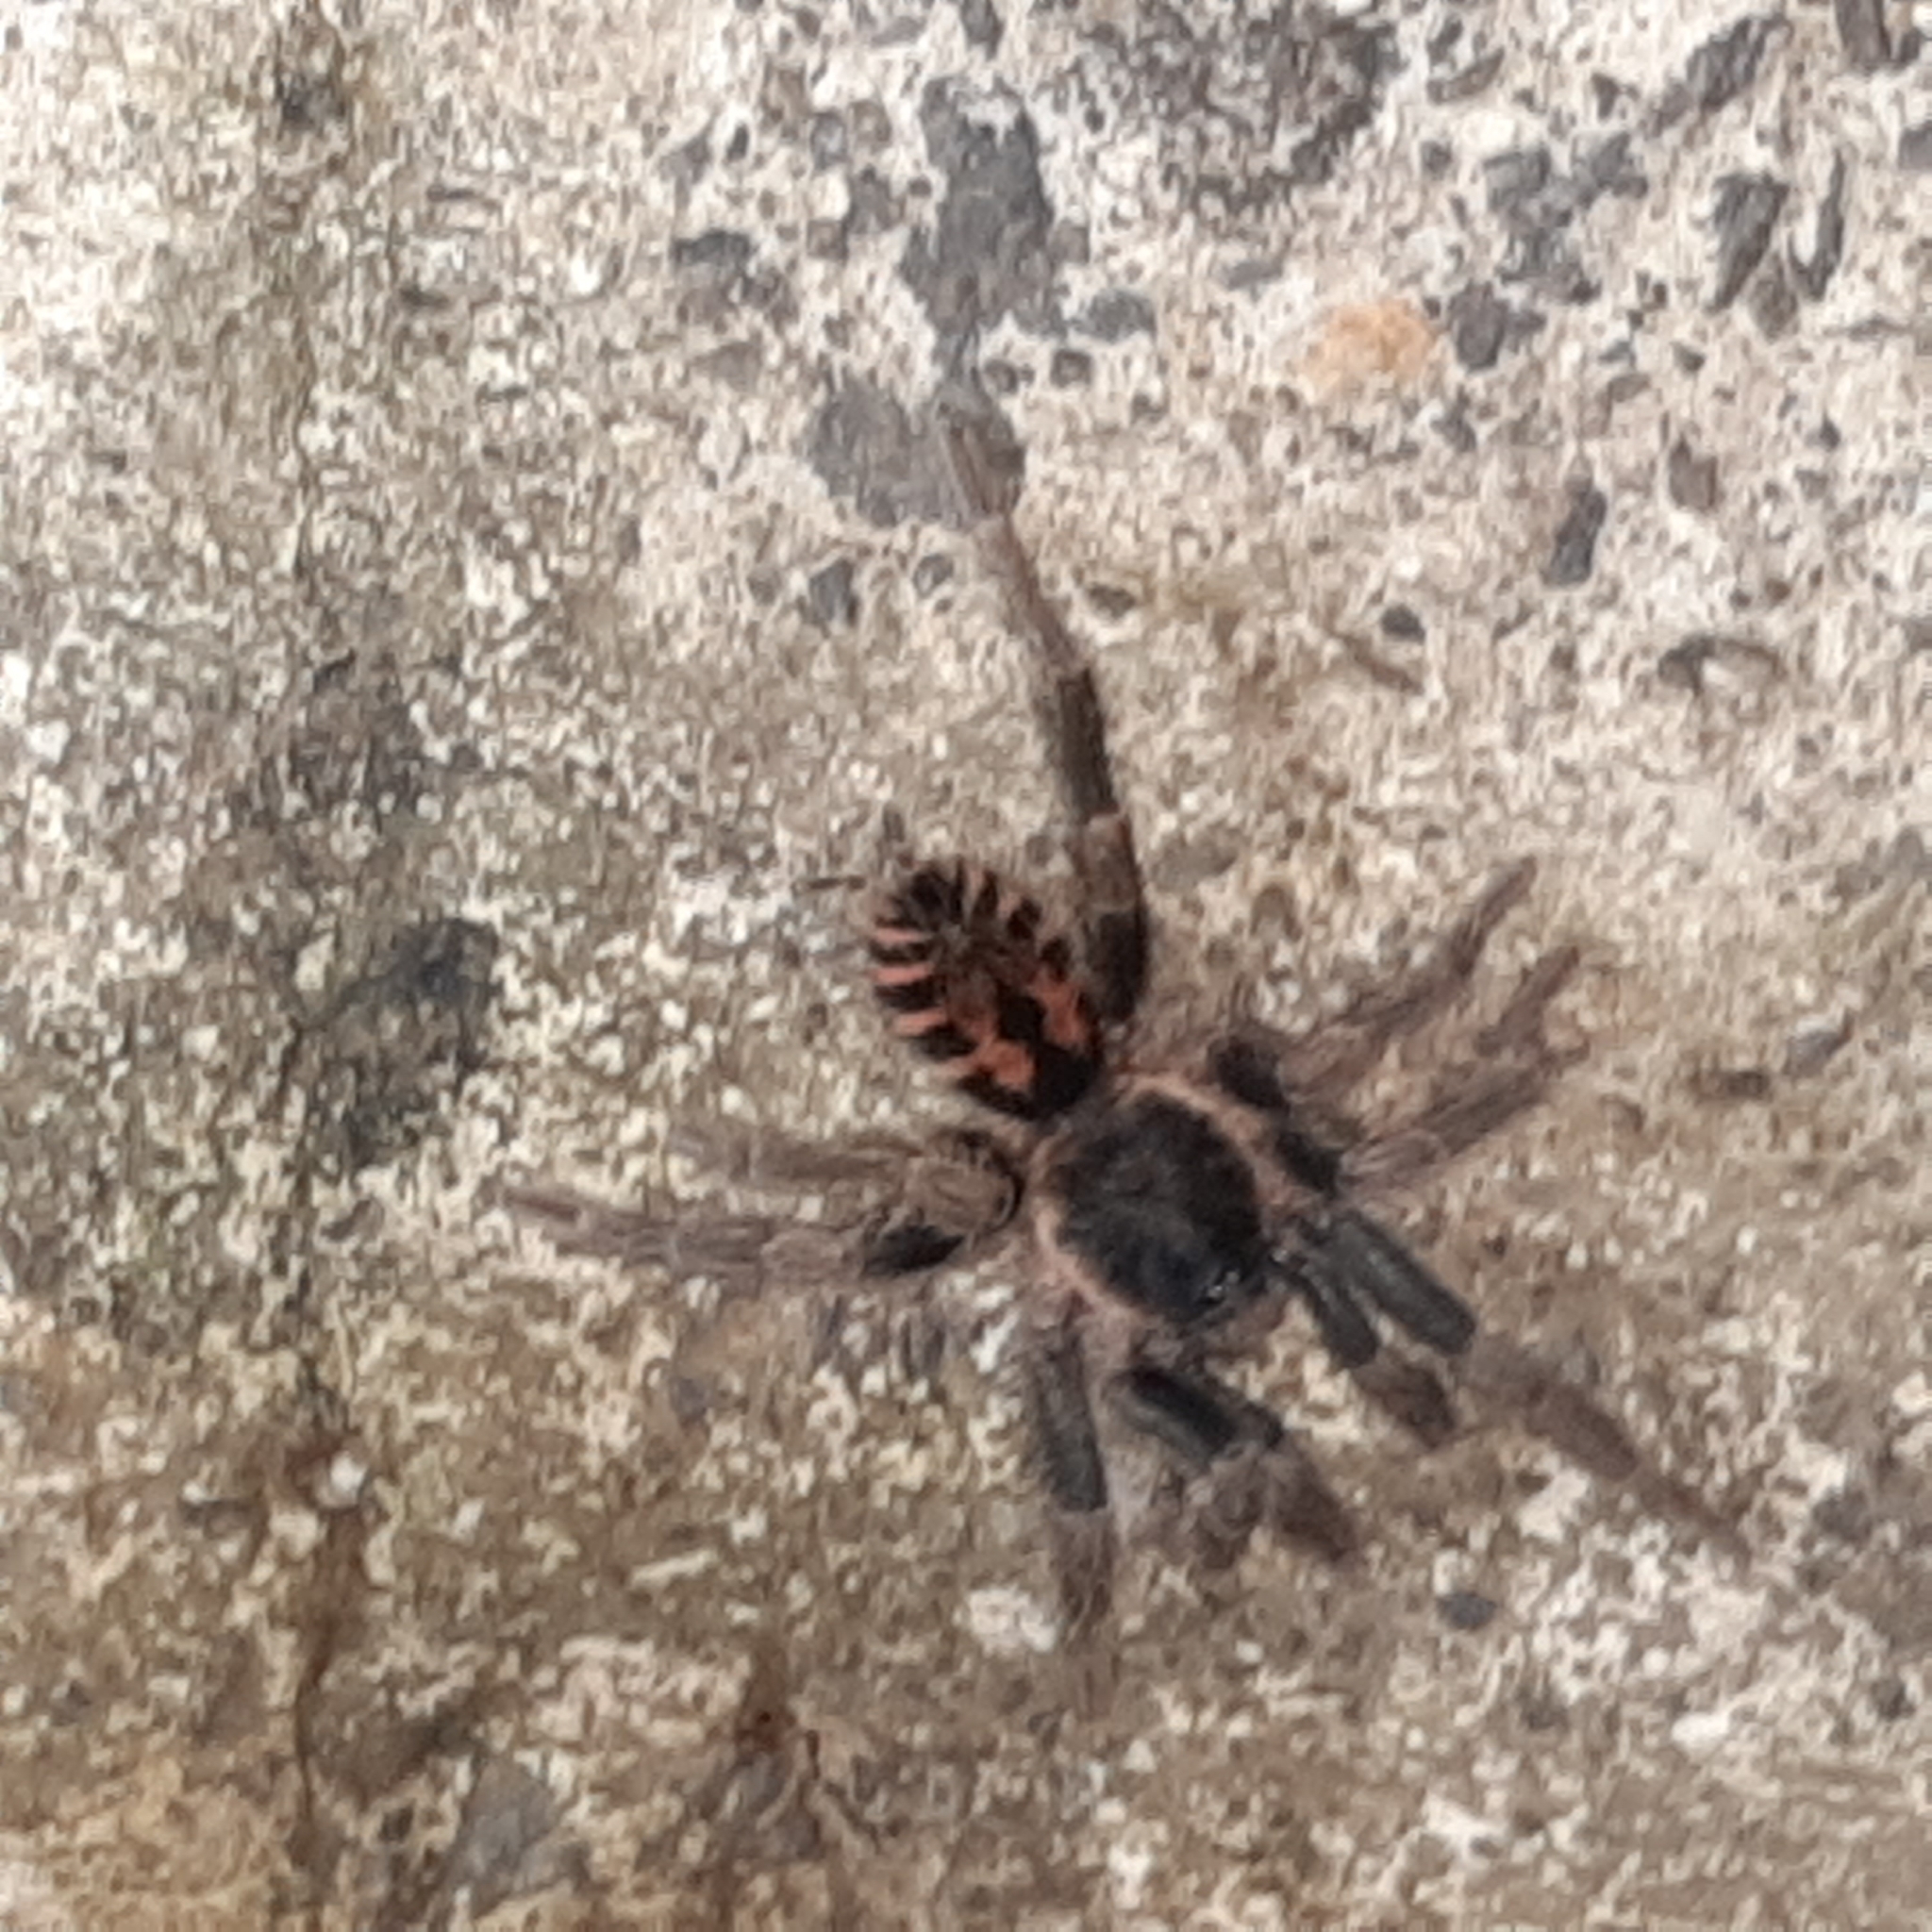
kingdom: Animalia
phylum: Arthropoda
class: Arachnida
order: Araneae
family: Theraphosidae
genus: Davus
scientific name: Davus fasciatus
